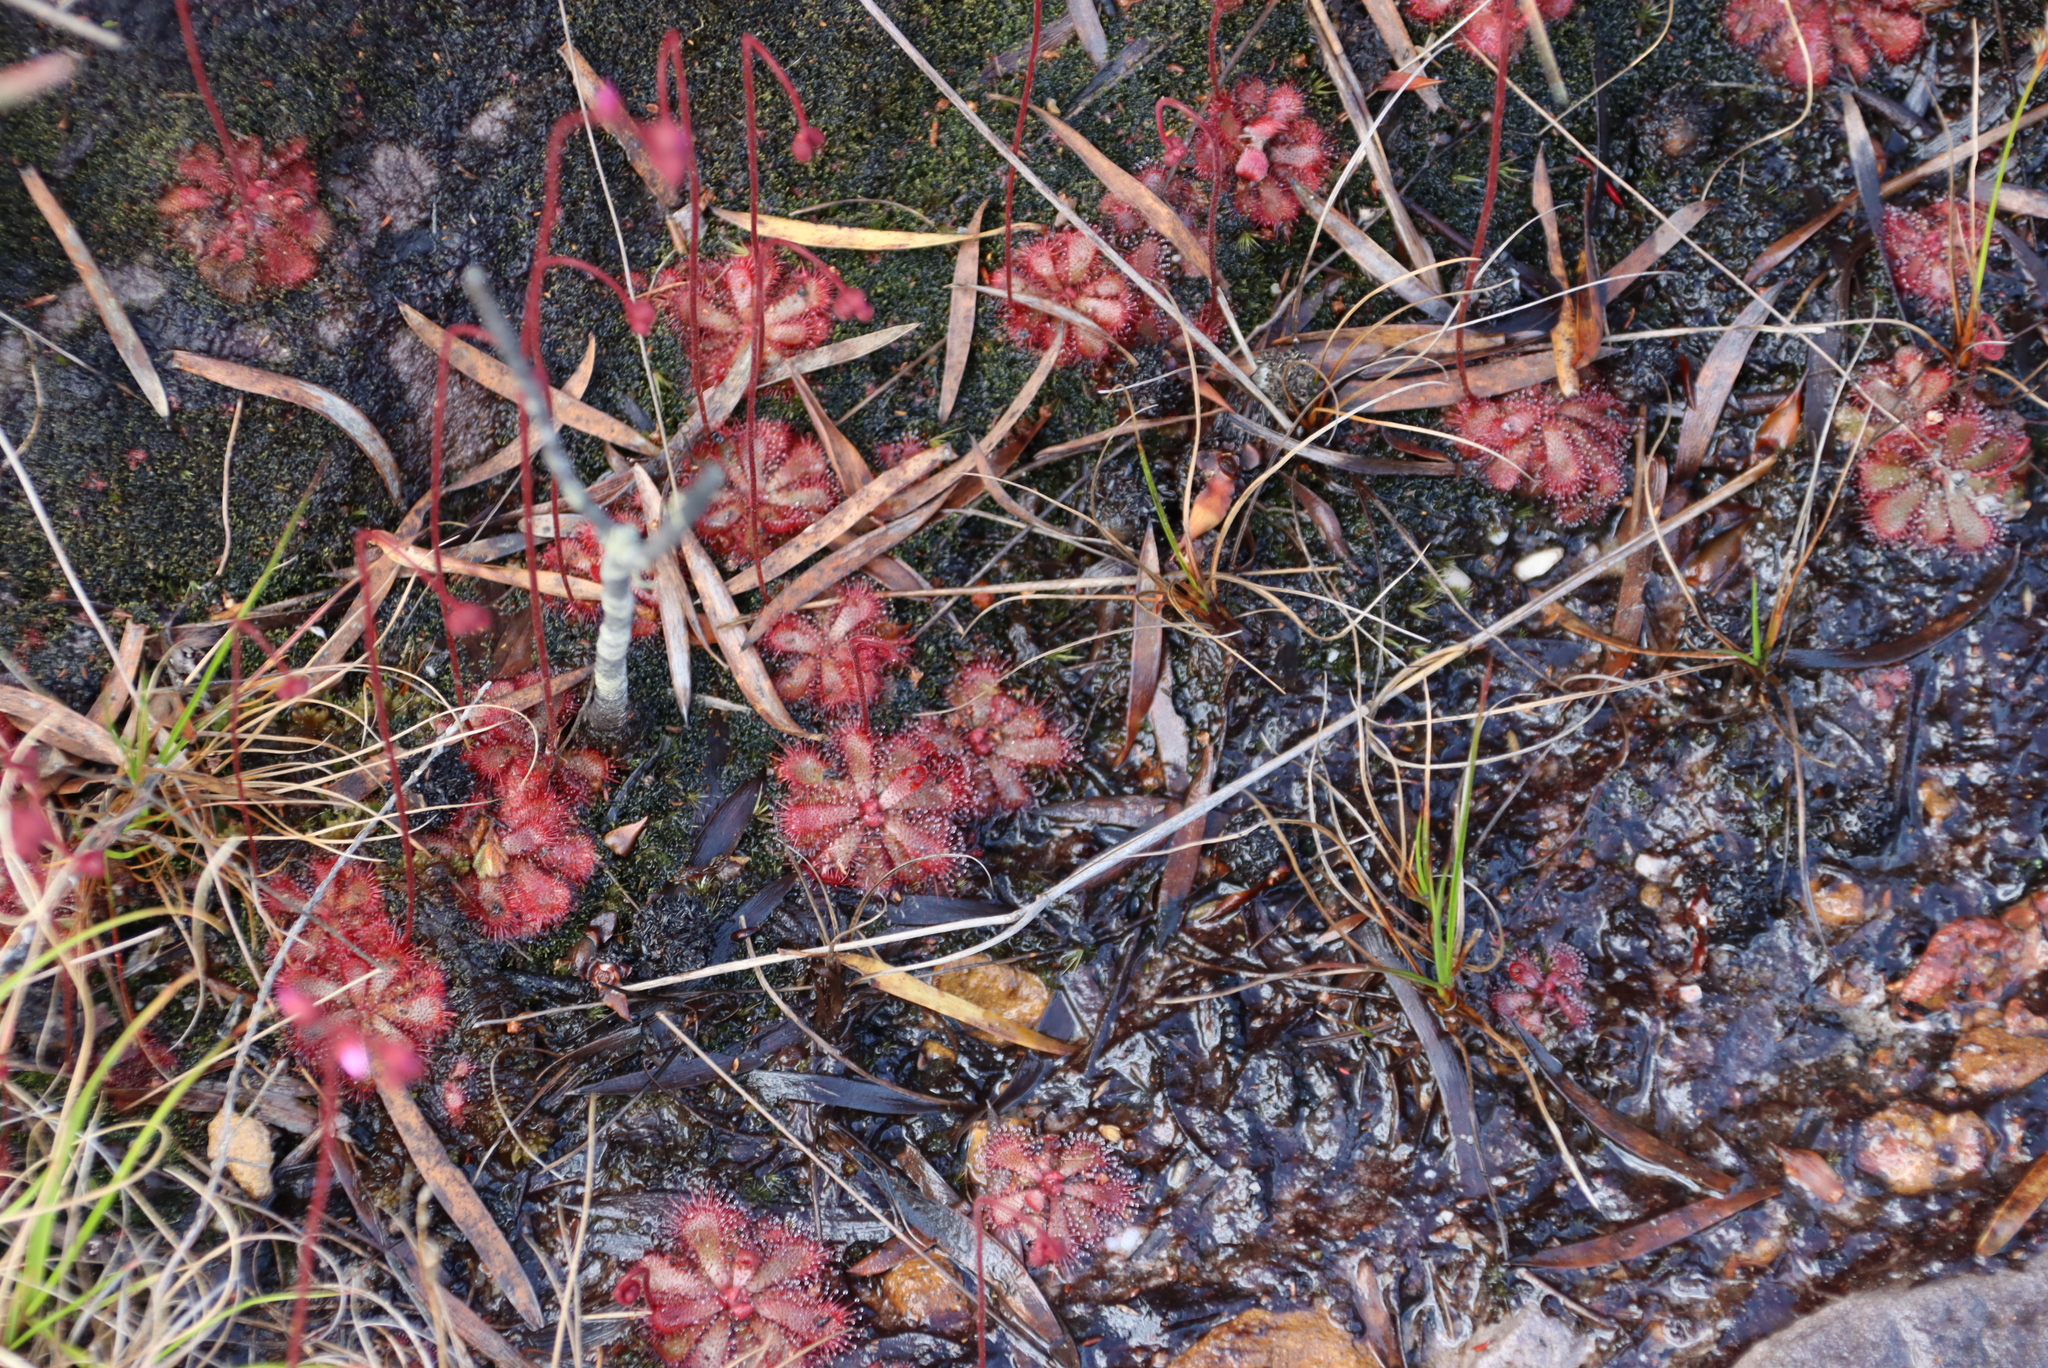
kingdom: Plantae
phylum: Tracheophyta
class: Magnoliopsida
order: Caryophyllales
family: Droseraceae
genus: Drosera
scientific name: Drosera aliciae
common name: Alice sundew
